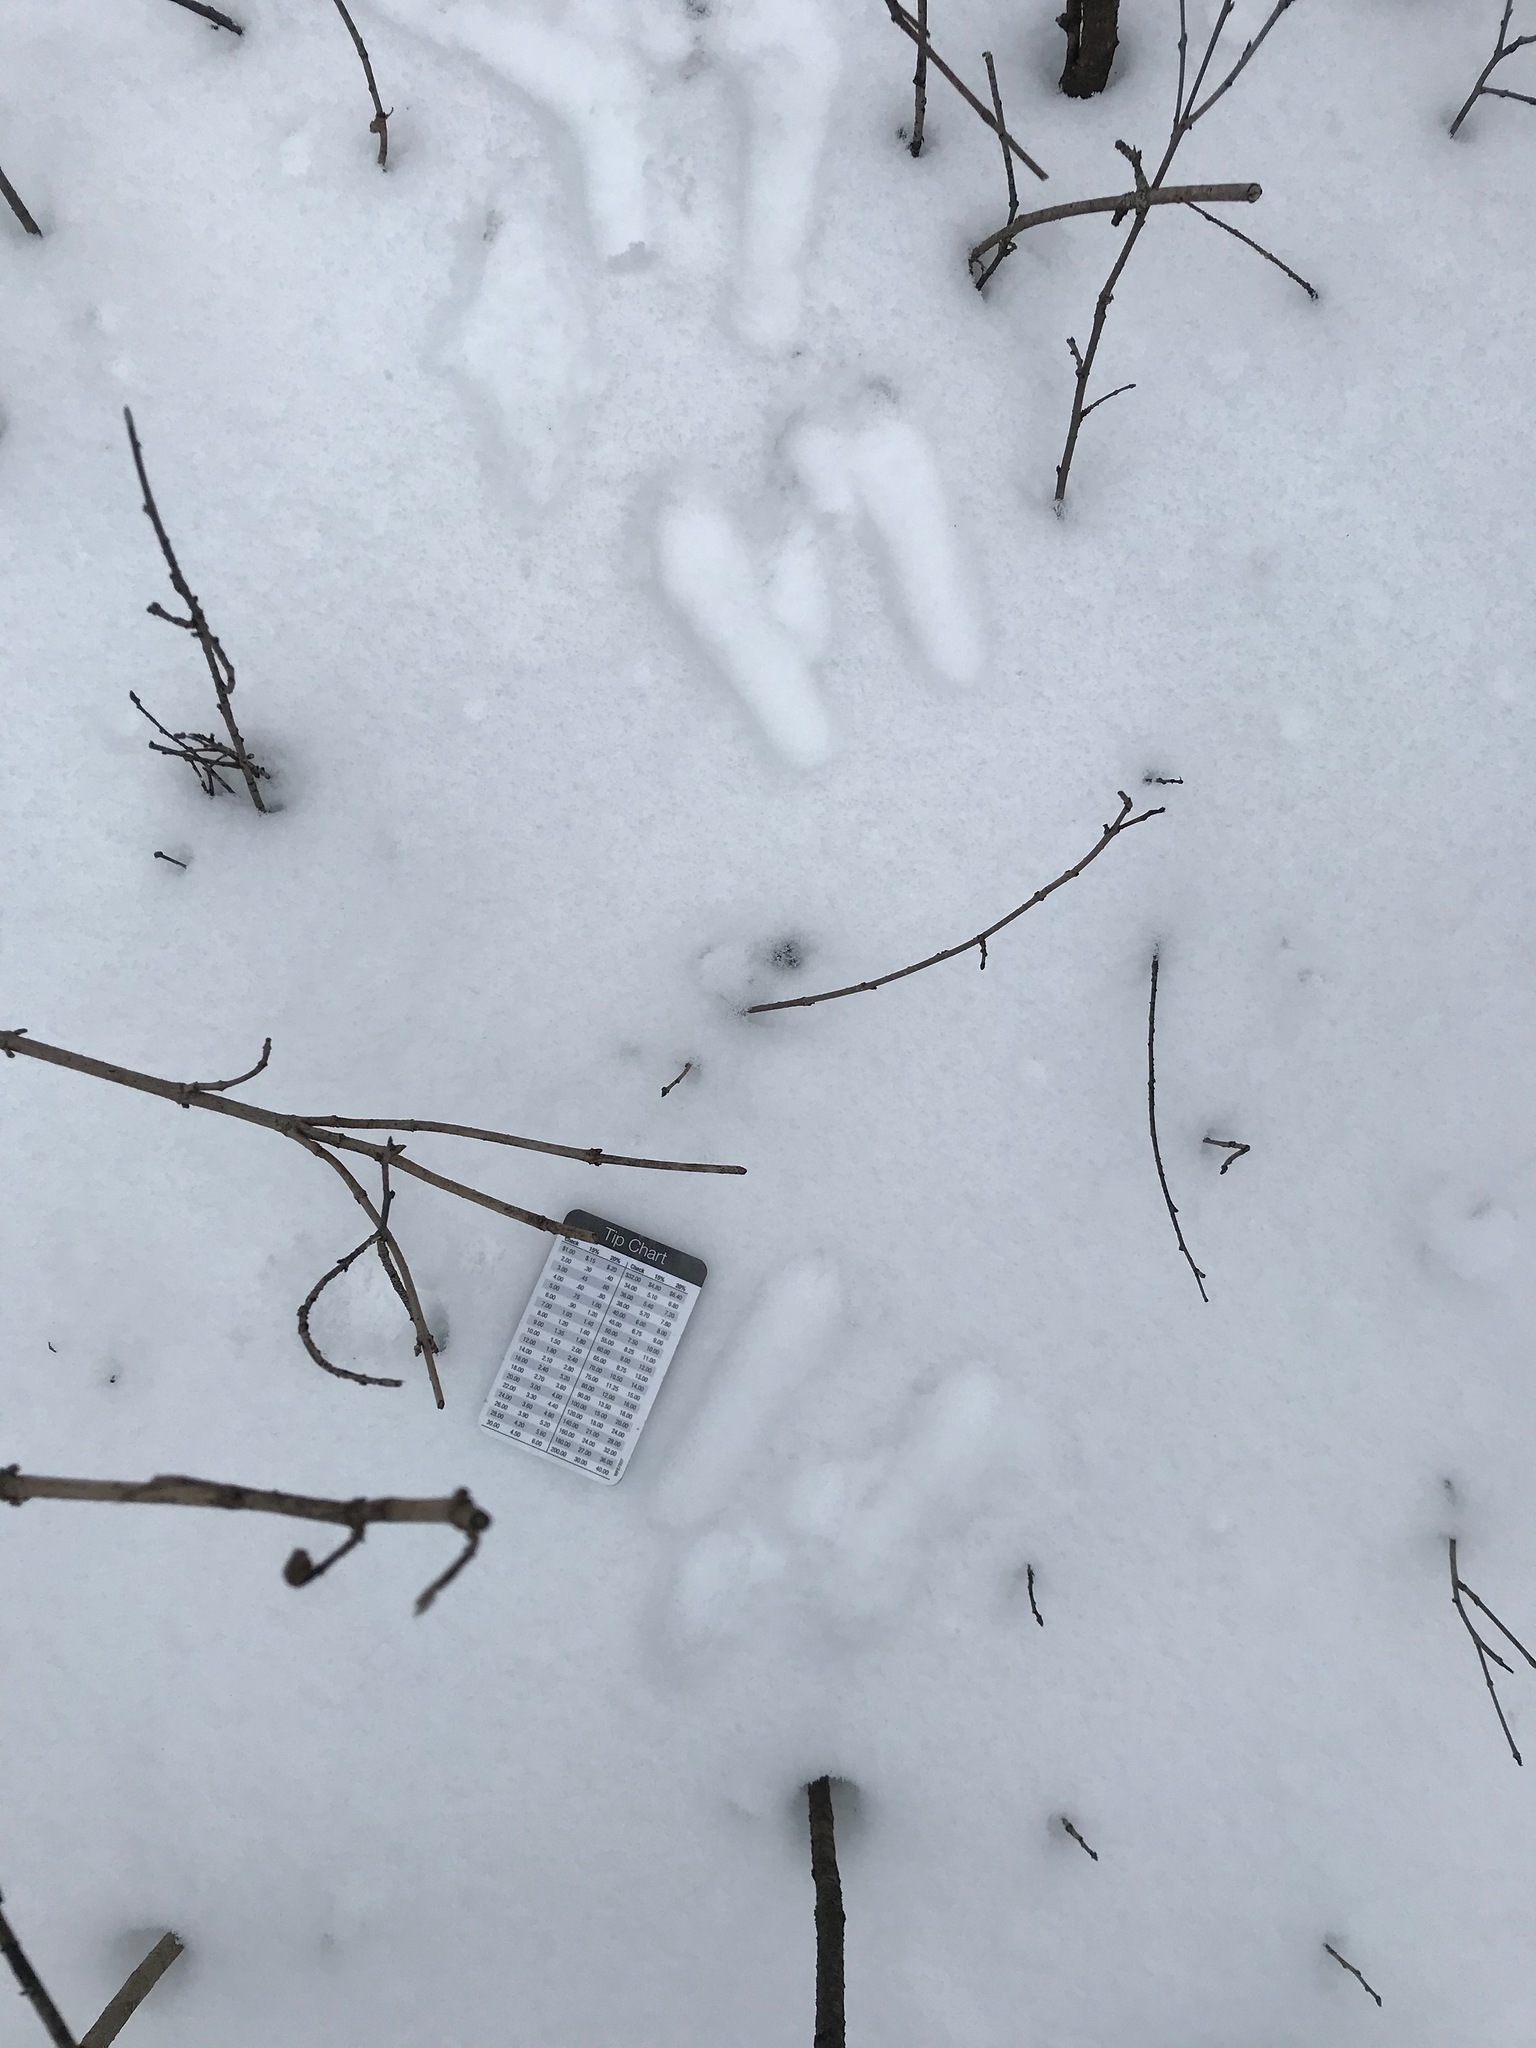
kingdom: Animalia
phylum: Chordata
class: Mammalia
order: Lagomorpha
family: Leporidae
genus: Sylvilagus
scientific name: Sylvilagus floridanus
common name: Eastern cottontail
